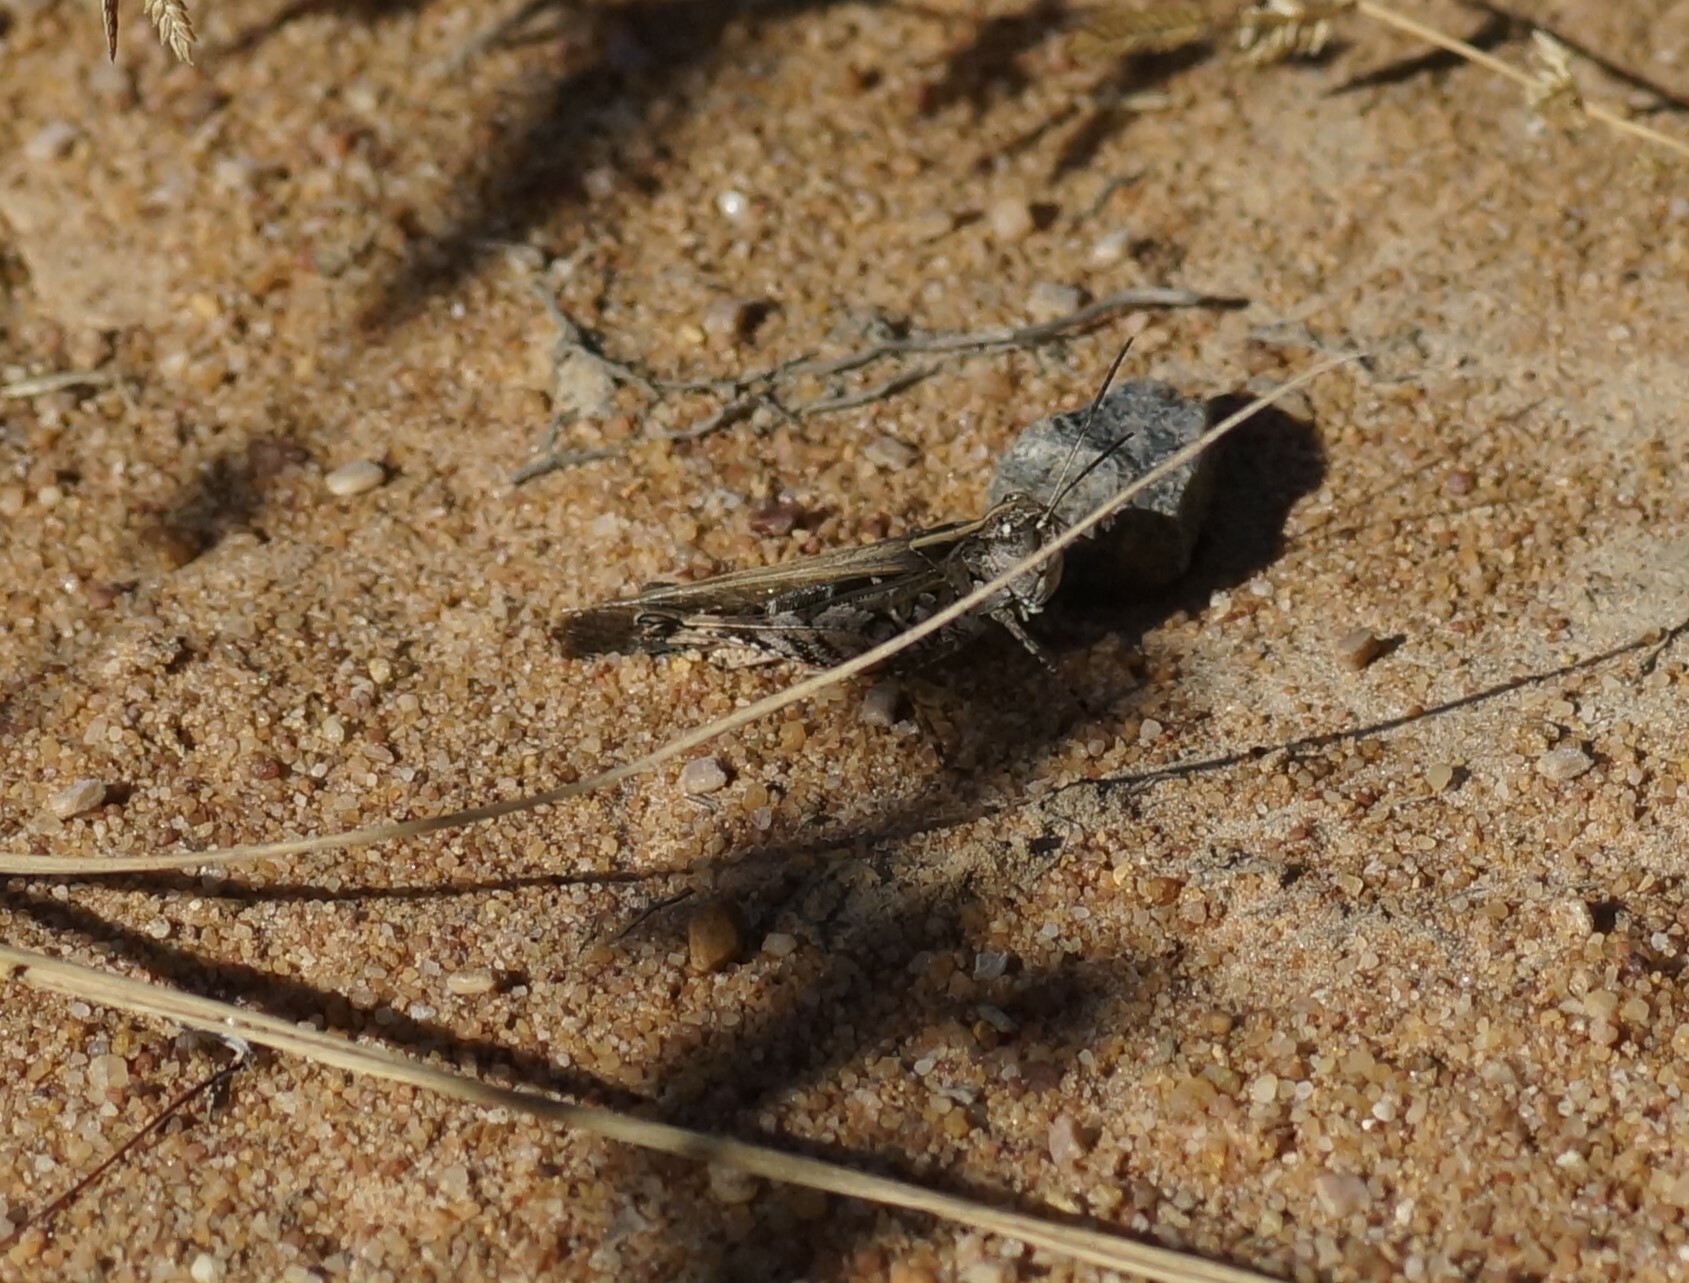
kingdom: Animalia
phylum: Arthropoda
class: Insecta
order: Orthoptera
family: Acrididae
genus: Heteropternis
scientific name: Heteropternis obscurella
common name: Long-legged bandwing
